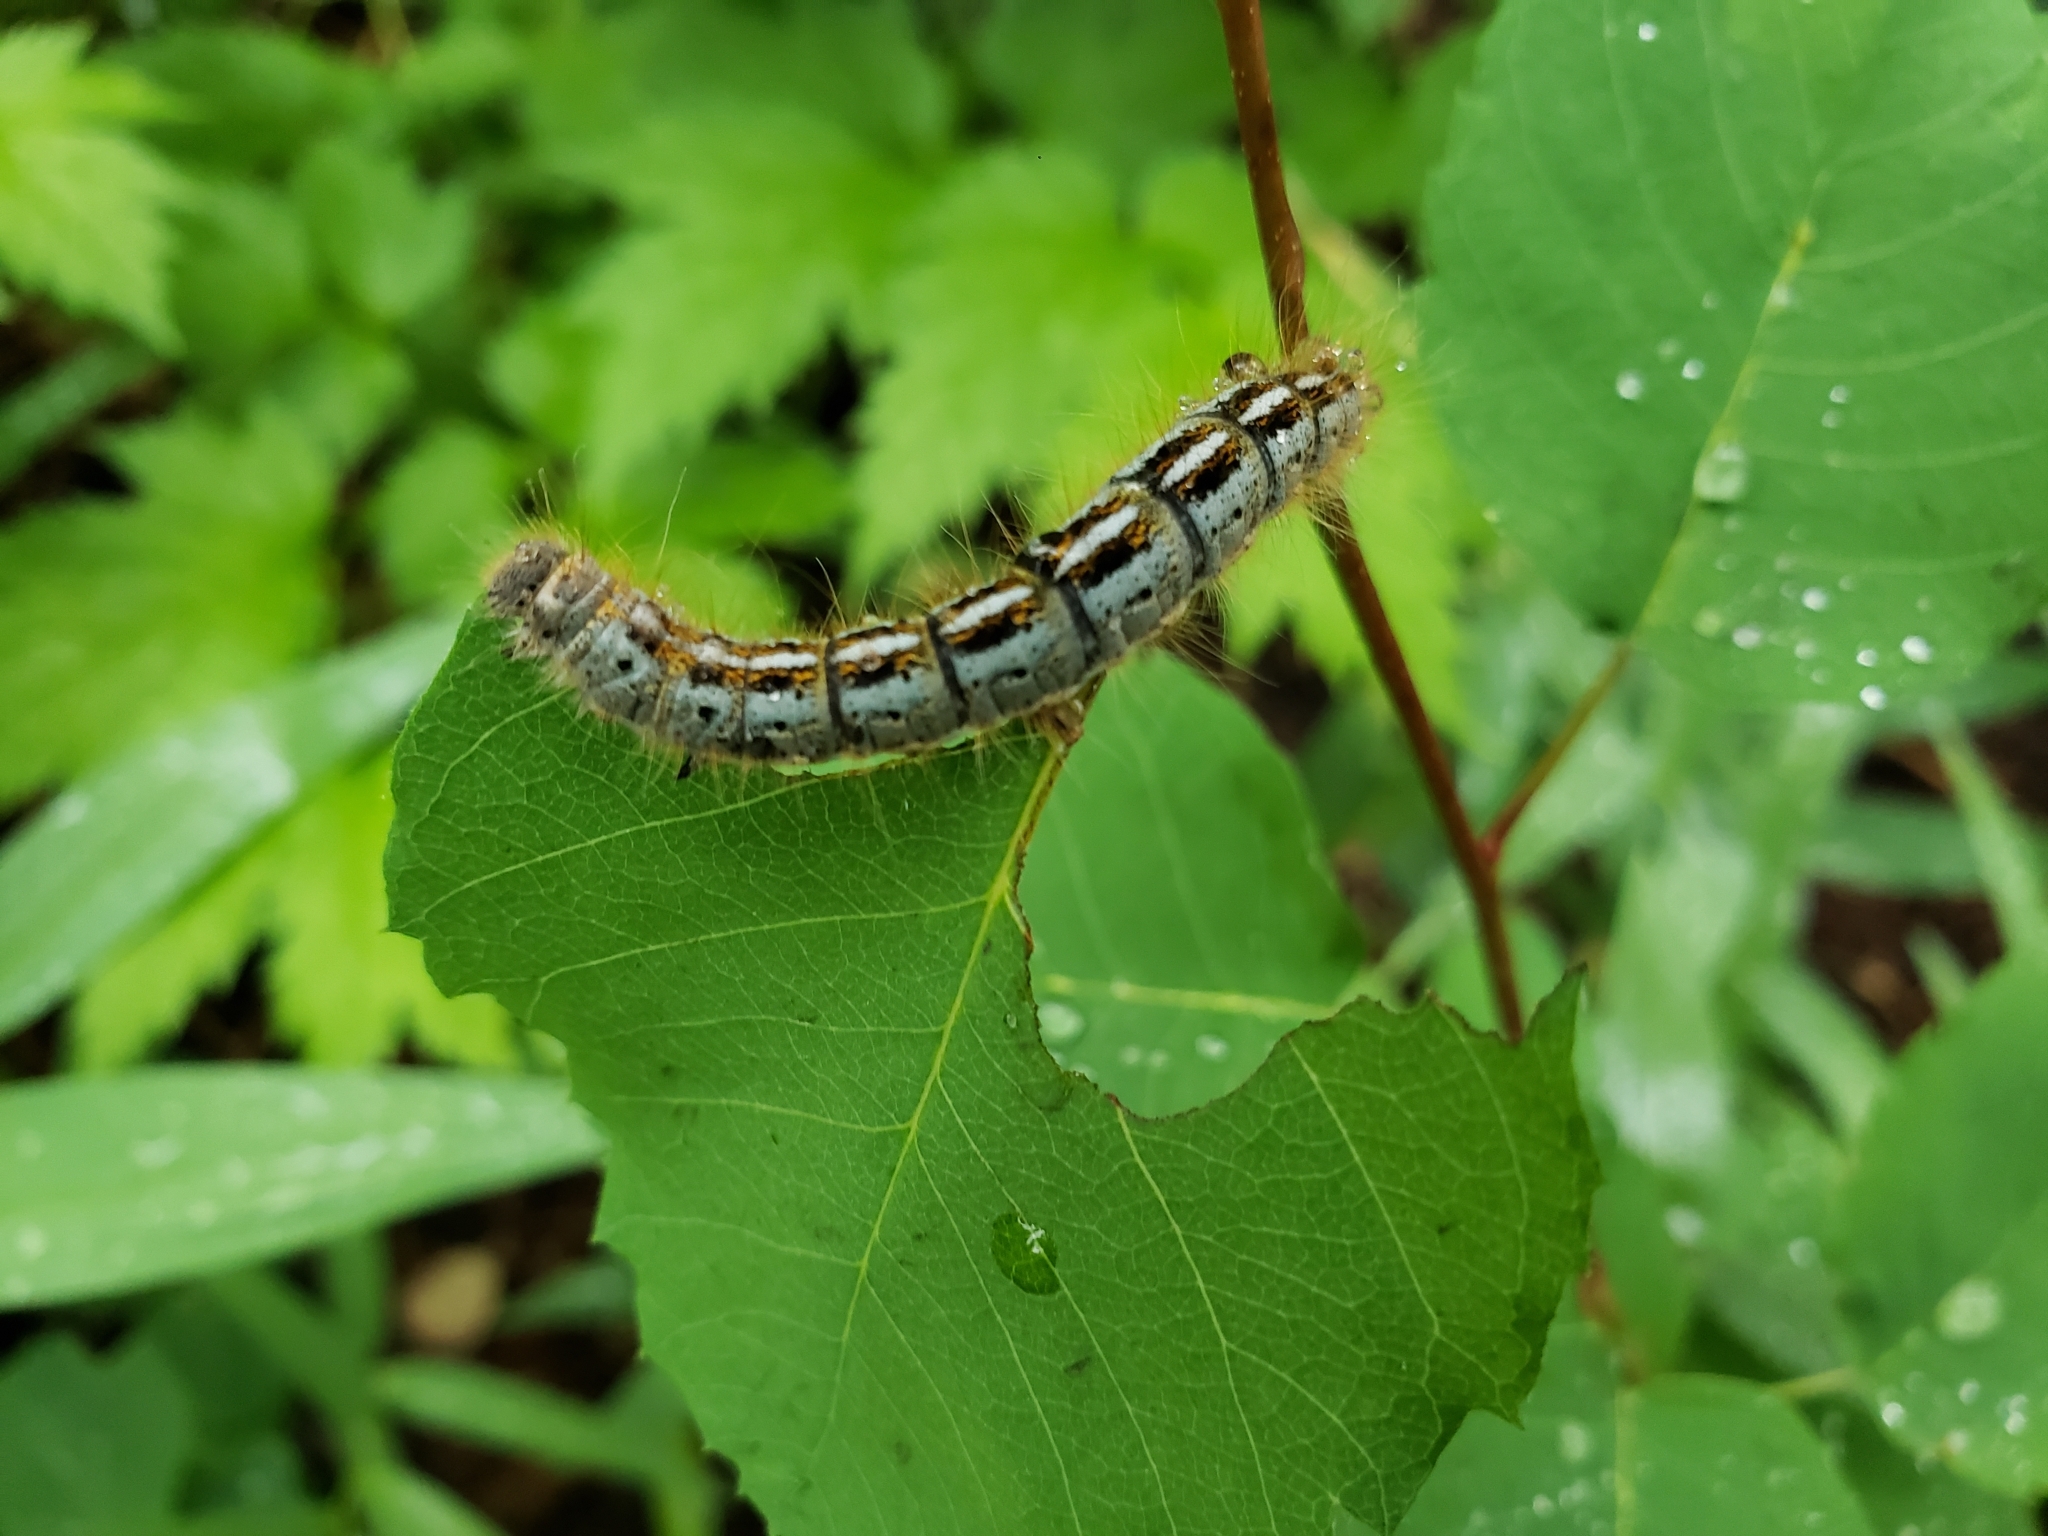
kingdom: Animalia
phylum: Arthropoda
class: Insecta
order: Lepidoptera
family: Lasiocampidae
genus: Malacosoma
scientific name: Malacosoma californica
